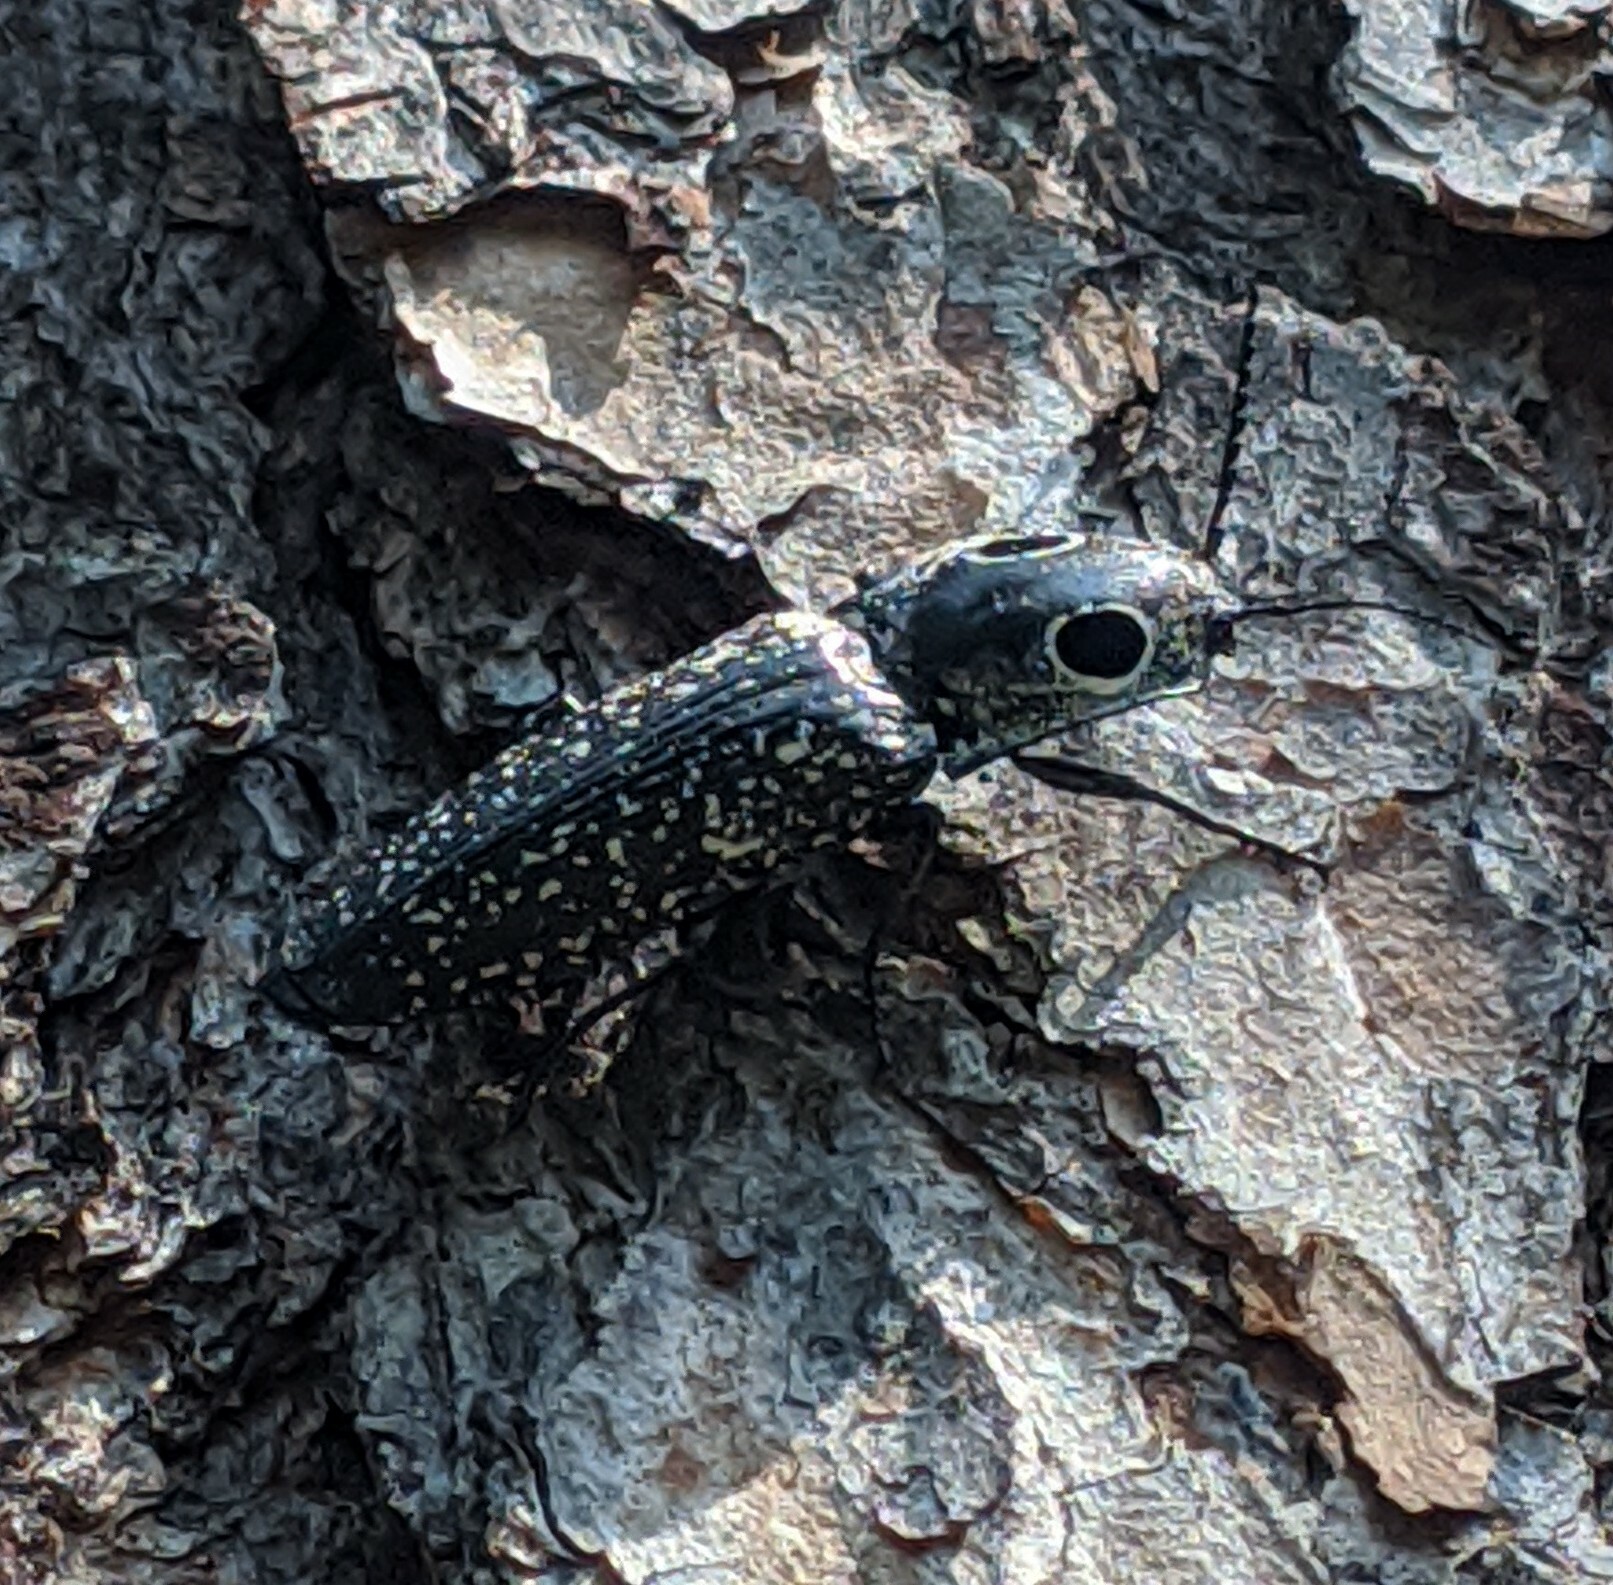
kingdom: Animalia
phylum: Arthropoda
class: Insecta
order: Coleoptera
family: Elateridae
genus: Alaus
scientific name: Alaus oculatus
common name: Eastern eyed click beetle
